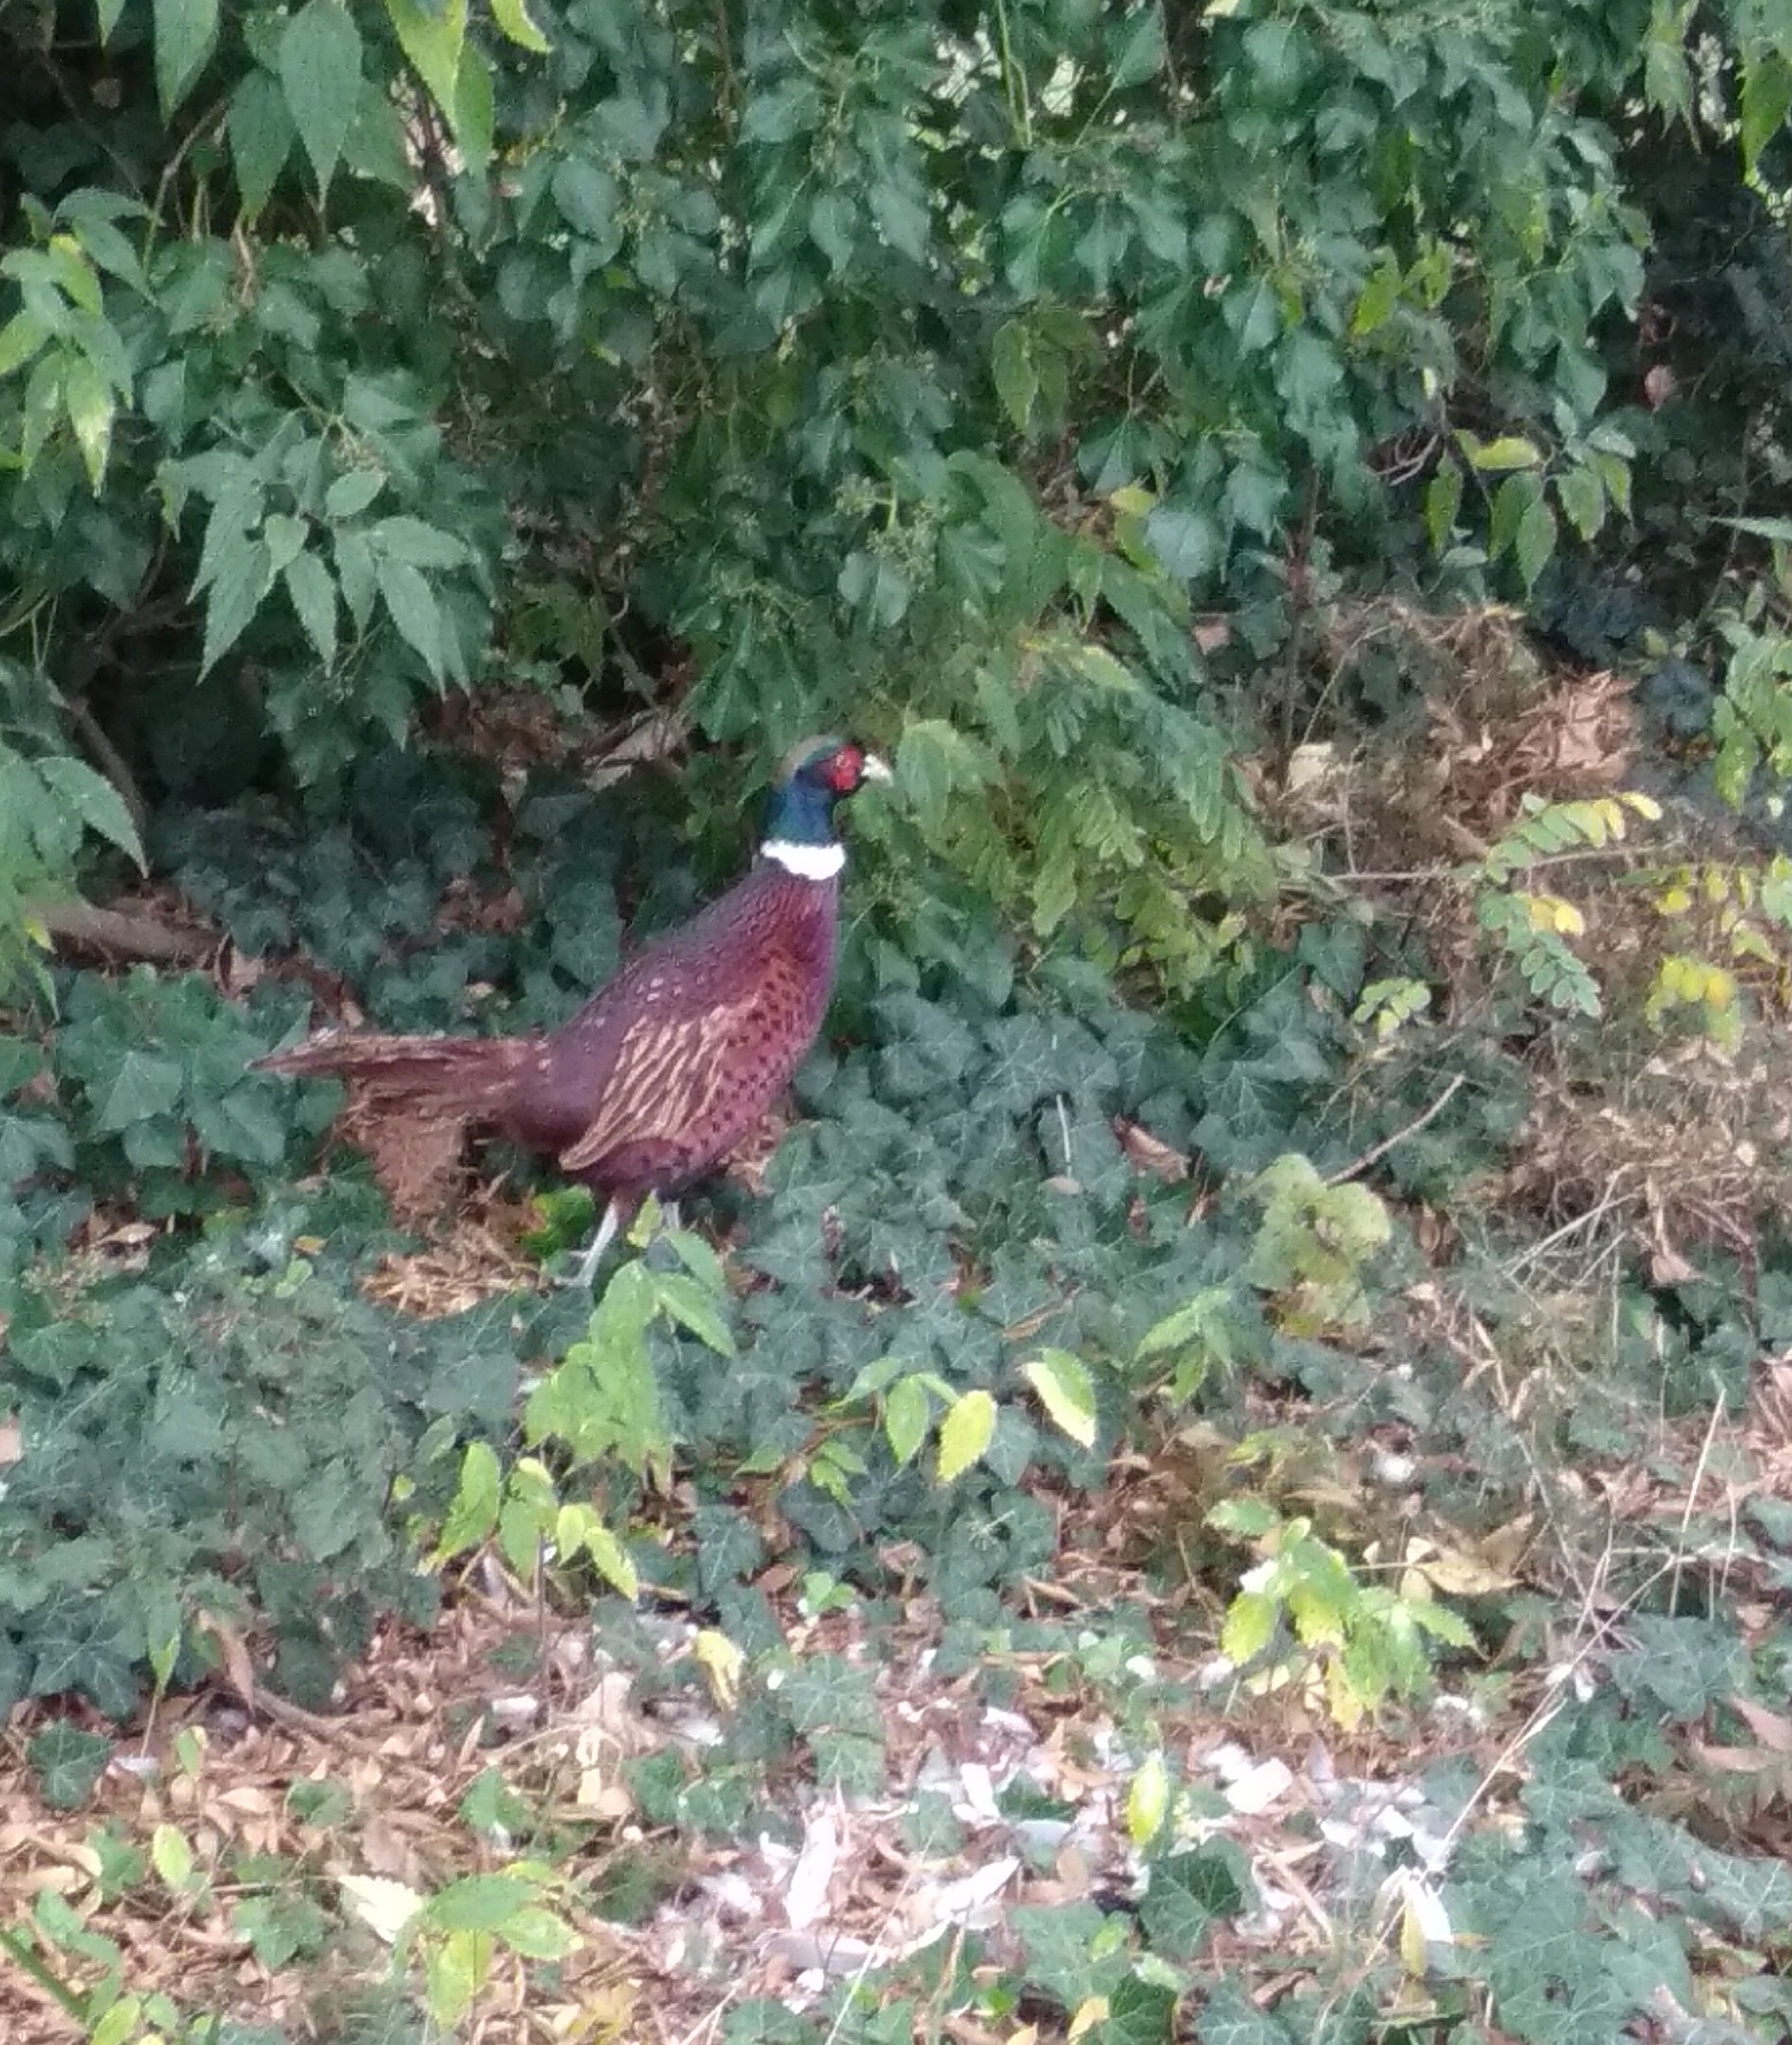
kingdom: Animalia
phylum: Chordata
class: Aves
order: Galliformes
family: Phasianidae
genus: Phasianus
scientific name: Phasianus colchicus
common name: Common pheasant
